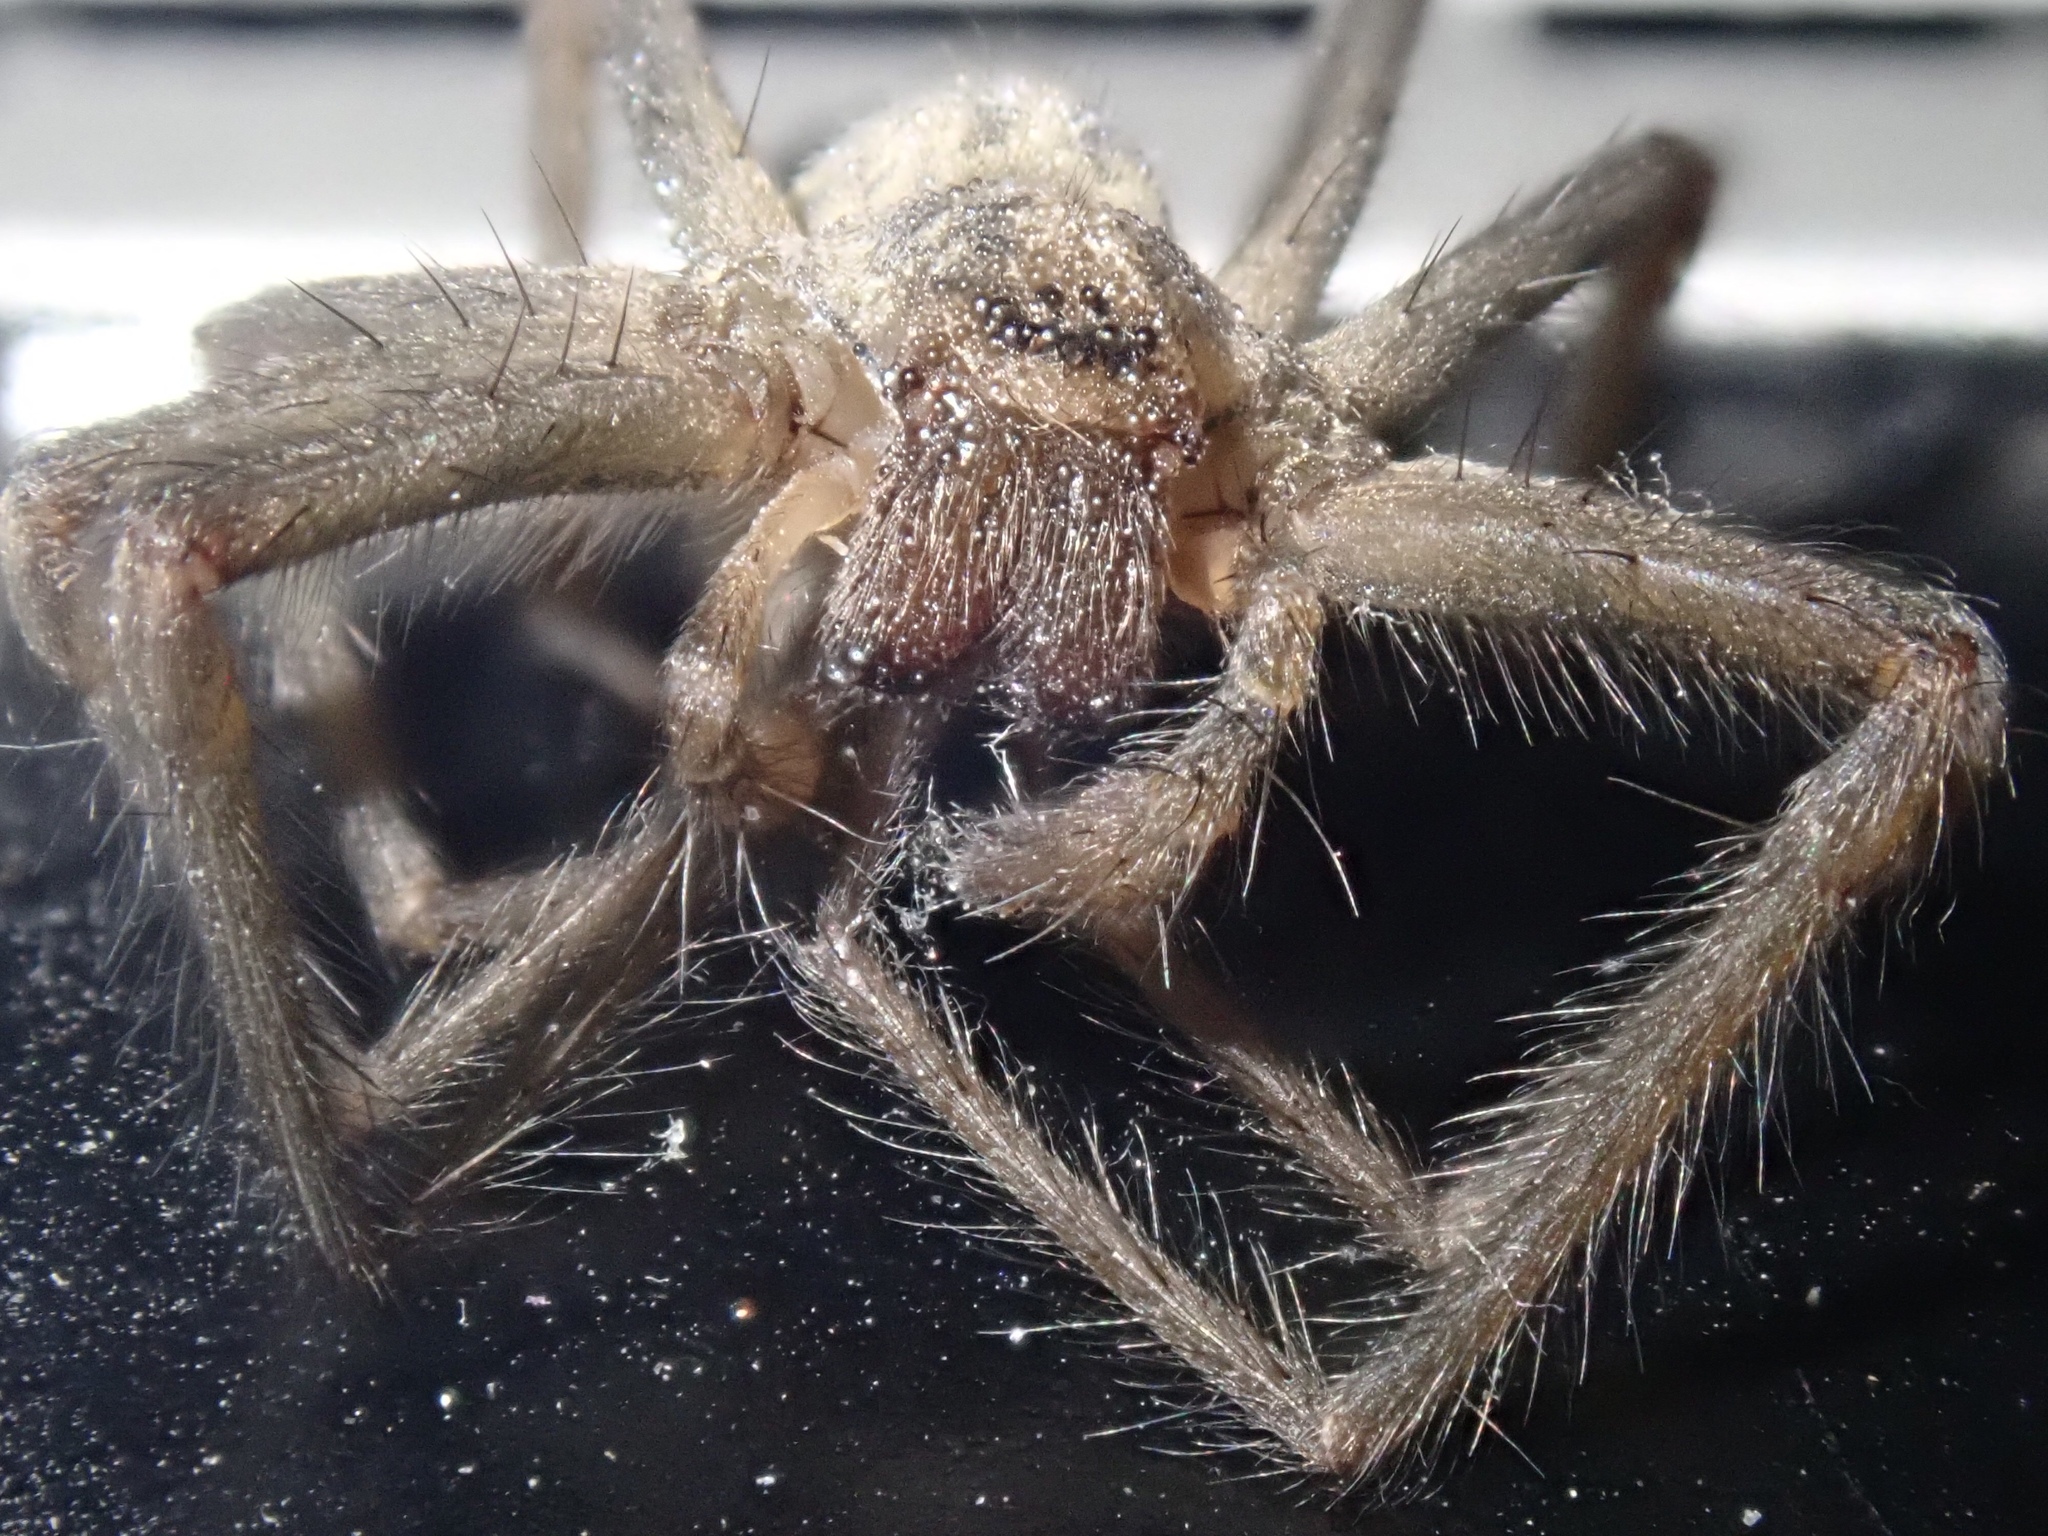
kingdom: Animalia
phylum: Arthropoda
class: Arachnida
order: Araneae
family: Agelenidae
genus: Eratigena
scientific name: Eratigena duellica
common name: Giant house spider
